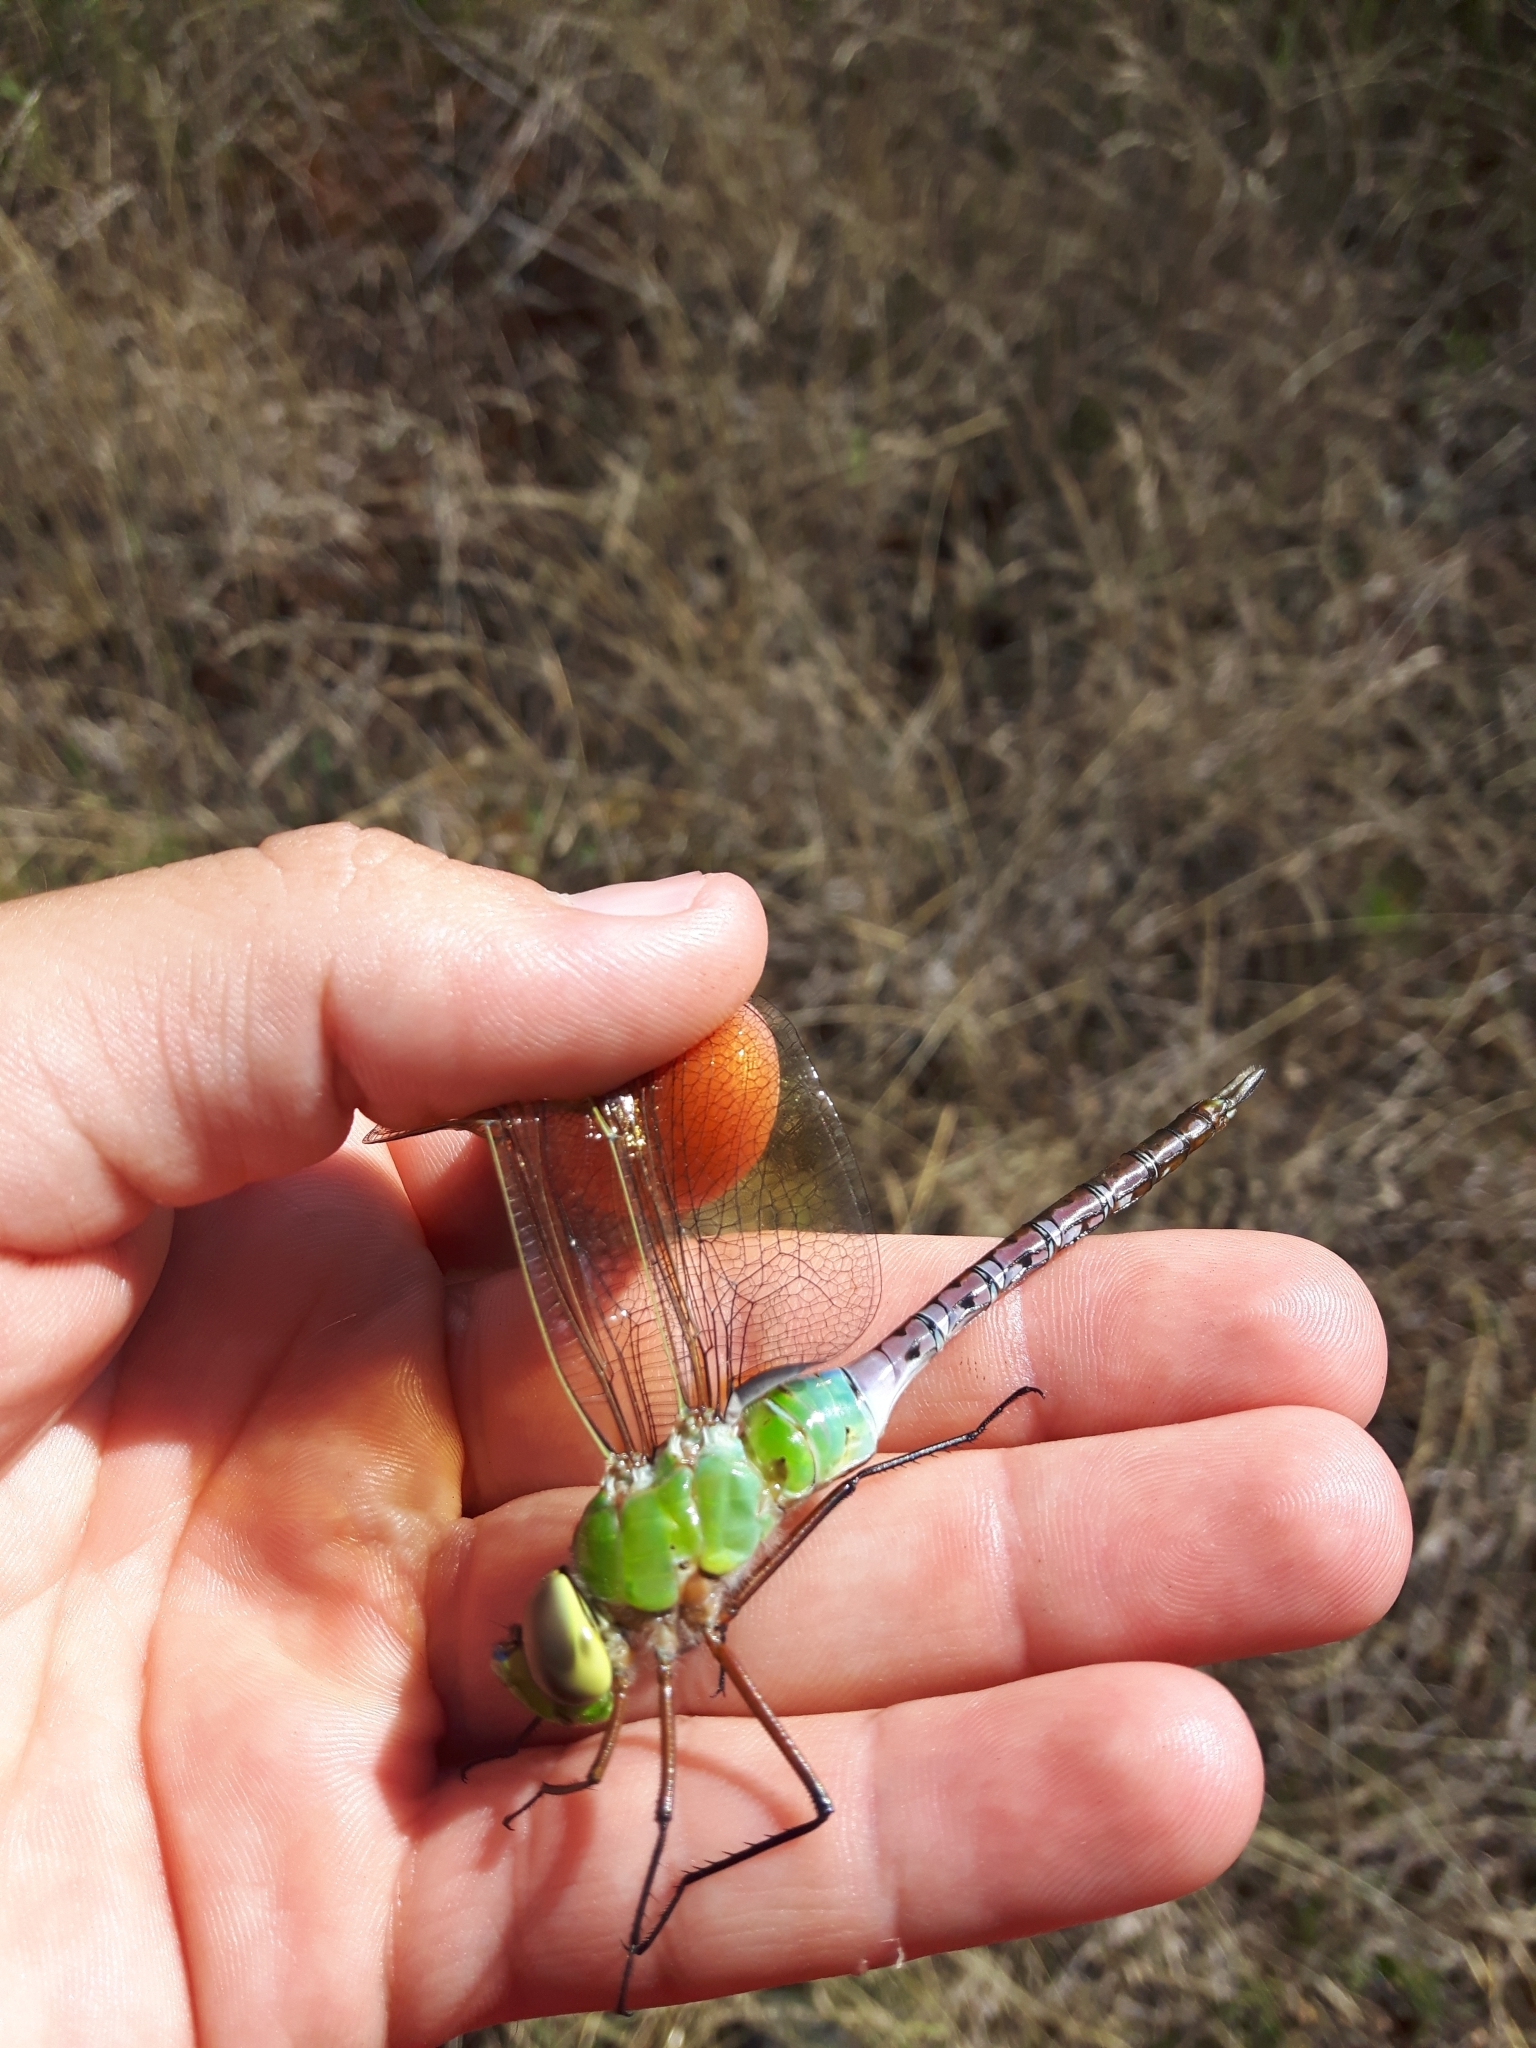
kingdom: Animalia
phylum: Arthropoda
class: Insecta
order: Odonata
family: Aeshnidae
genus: Anax
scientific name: Anax junius
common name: Common green darner
